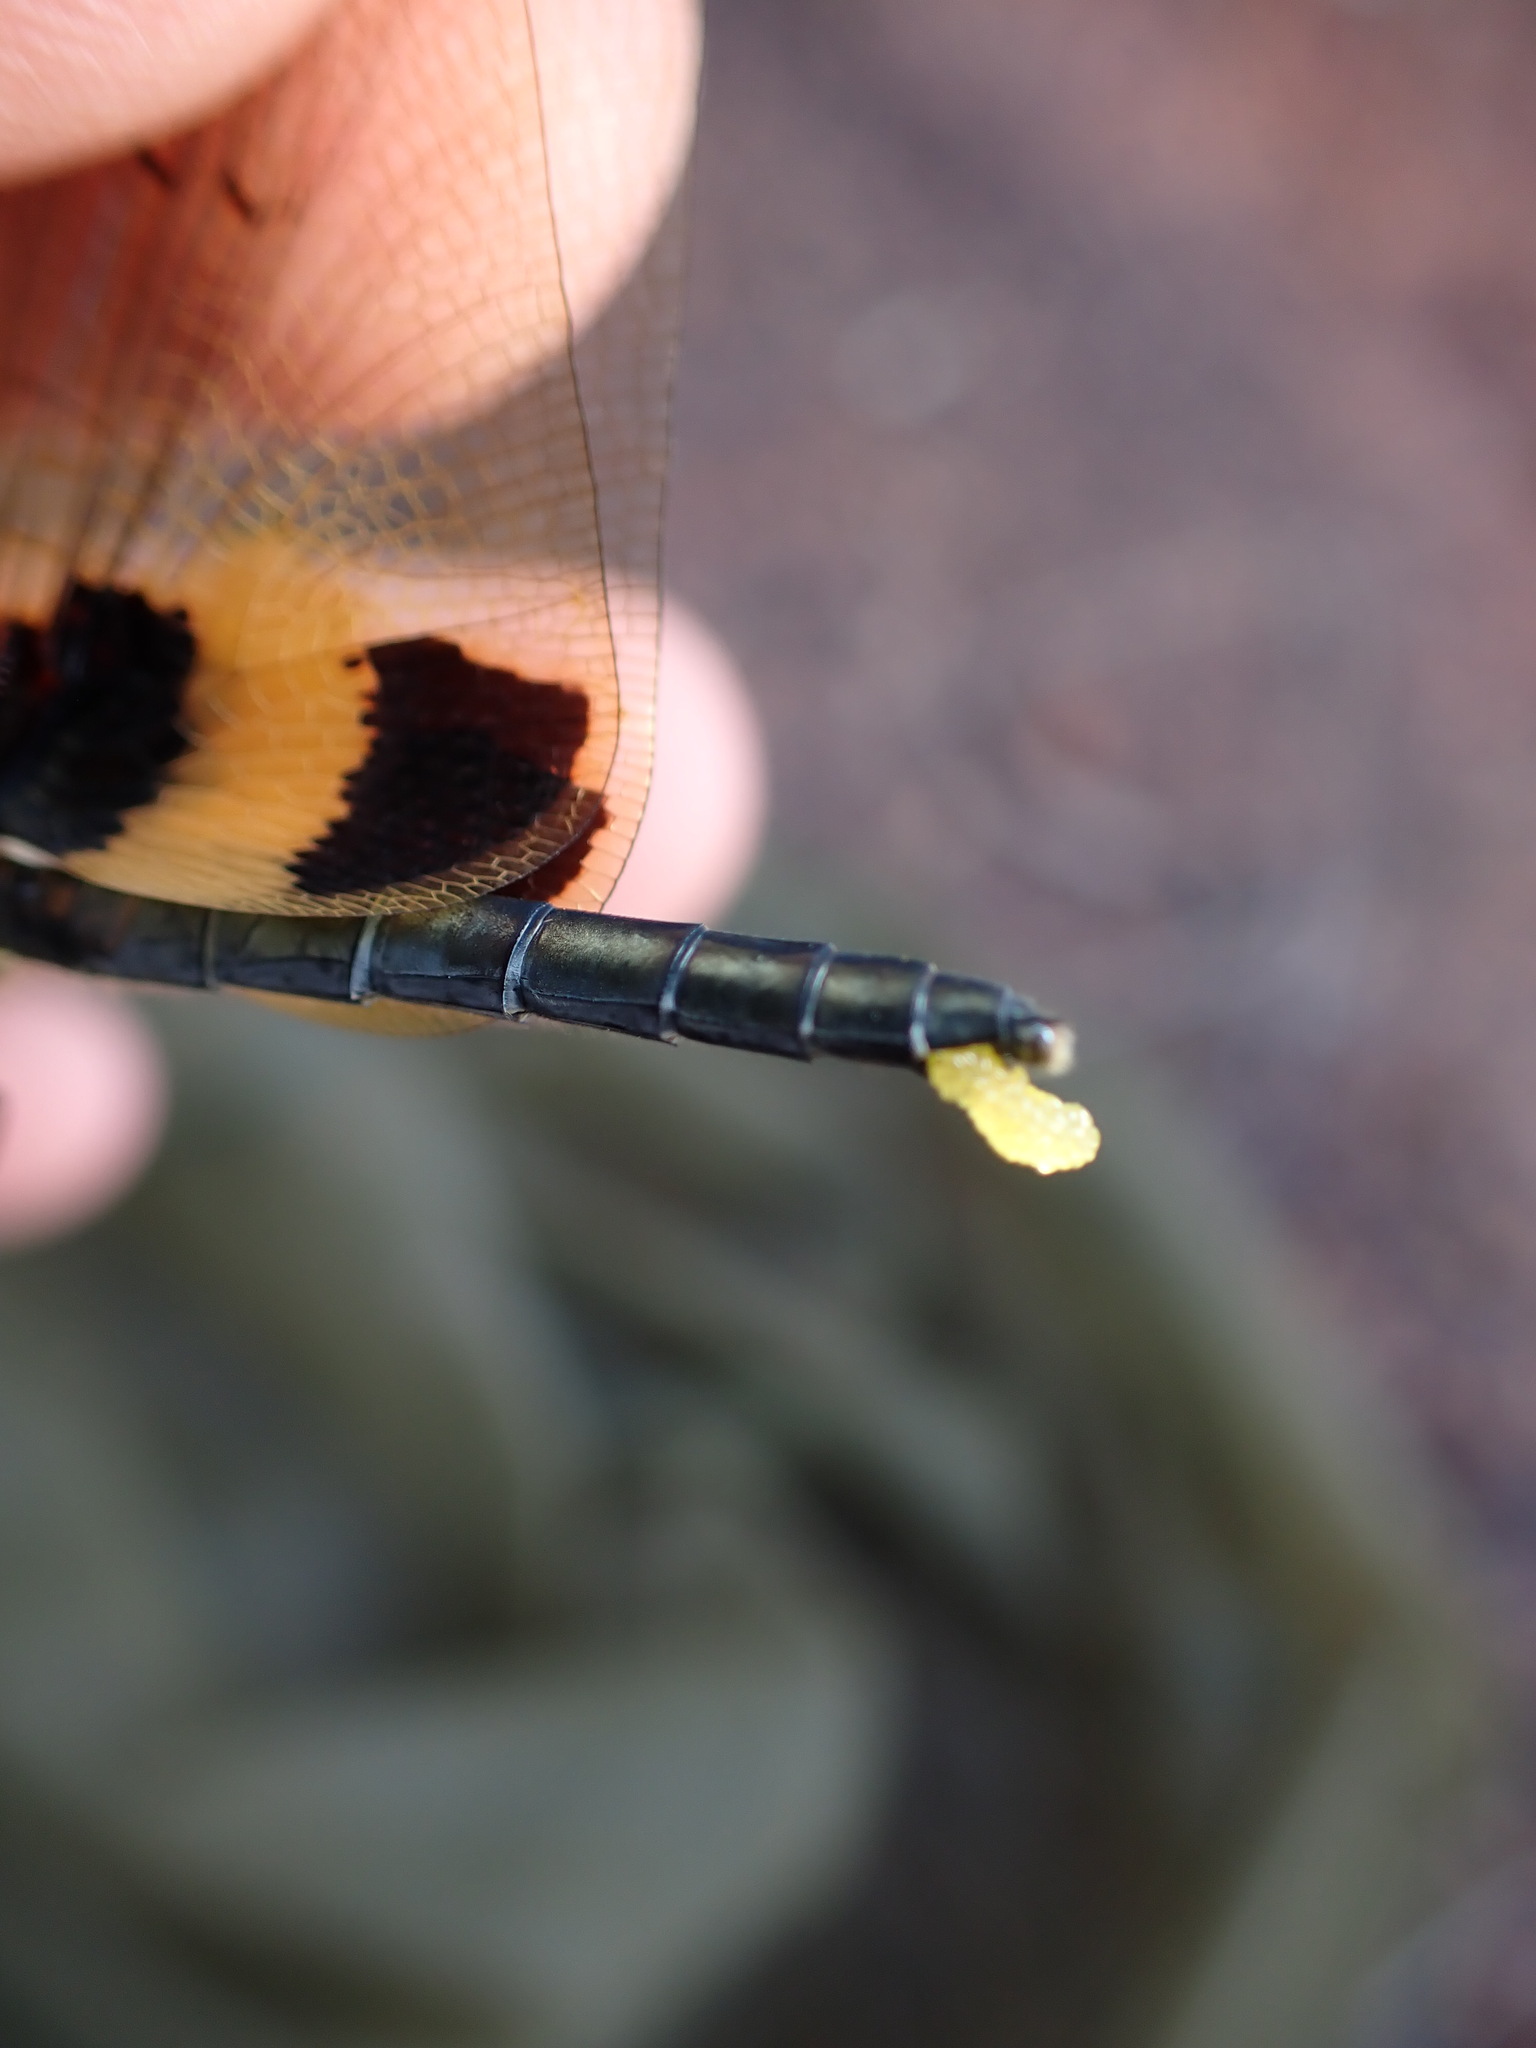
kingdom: Animalia
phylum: Arthropoda
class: Insecta
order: Odonata
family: Libellulidae
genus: Rhyothemis
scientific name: Rhyothemis phyllis
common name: Yellow-barred flutterer
